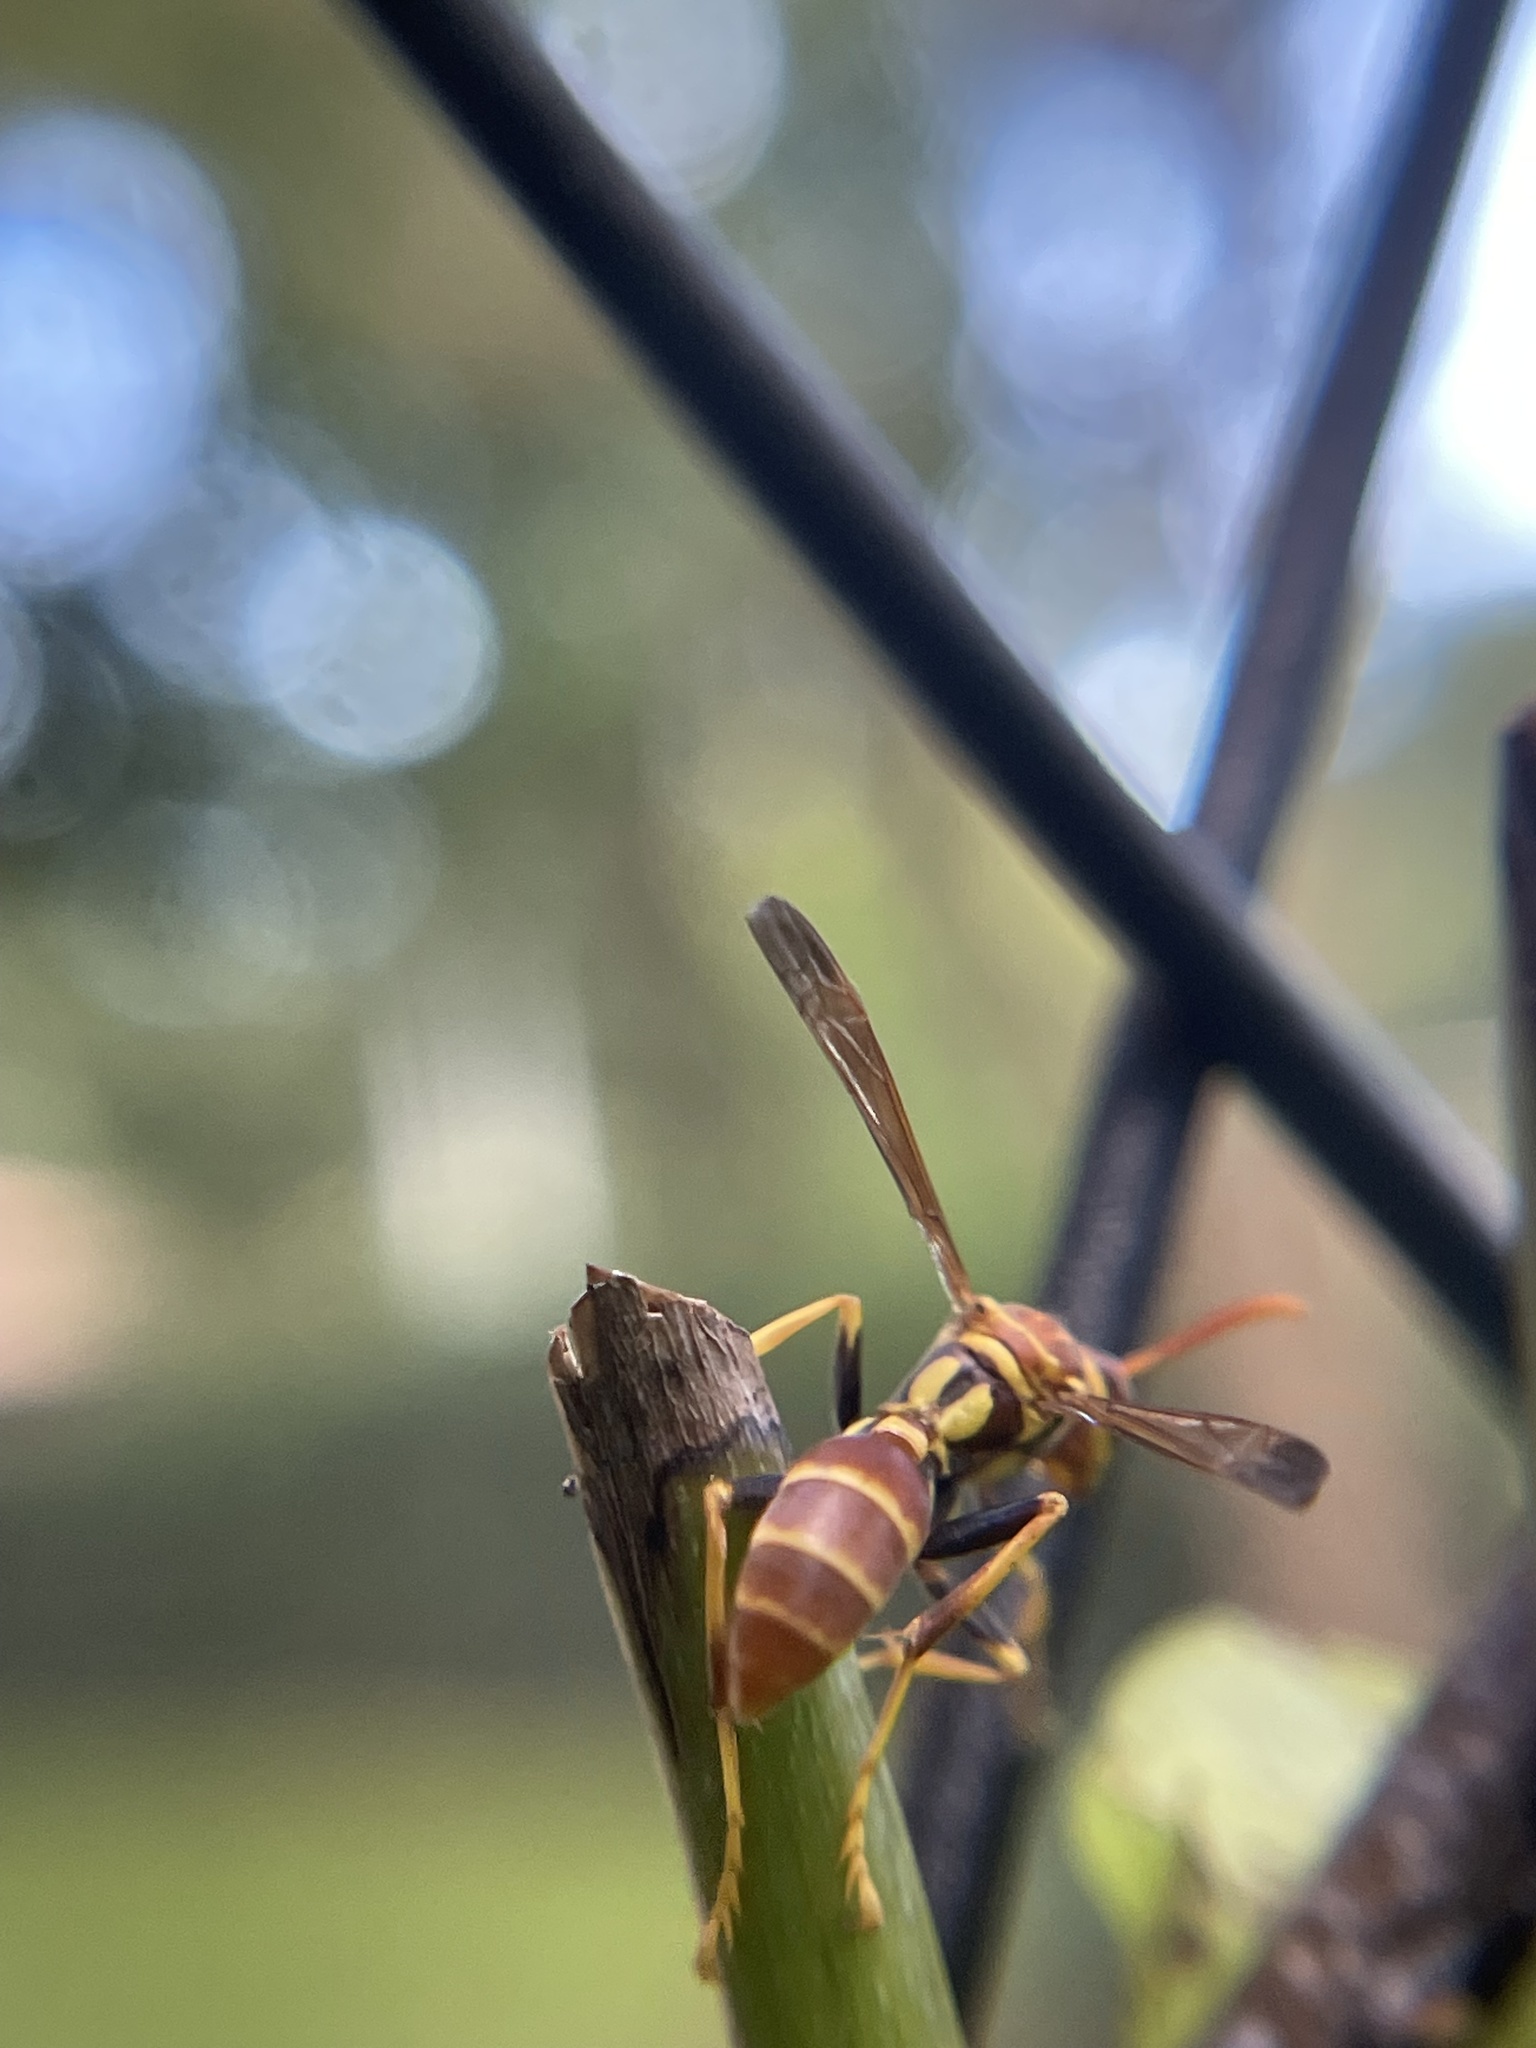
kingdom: Animalia
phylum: Arthropoda
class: Insecta
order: Hymenoptera
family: Vespidae
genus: Mischocyttarus
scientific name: Mischocyttarus mexicanus
